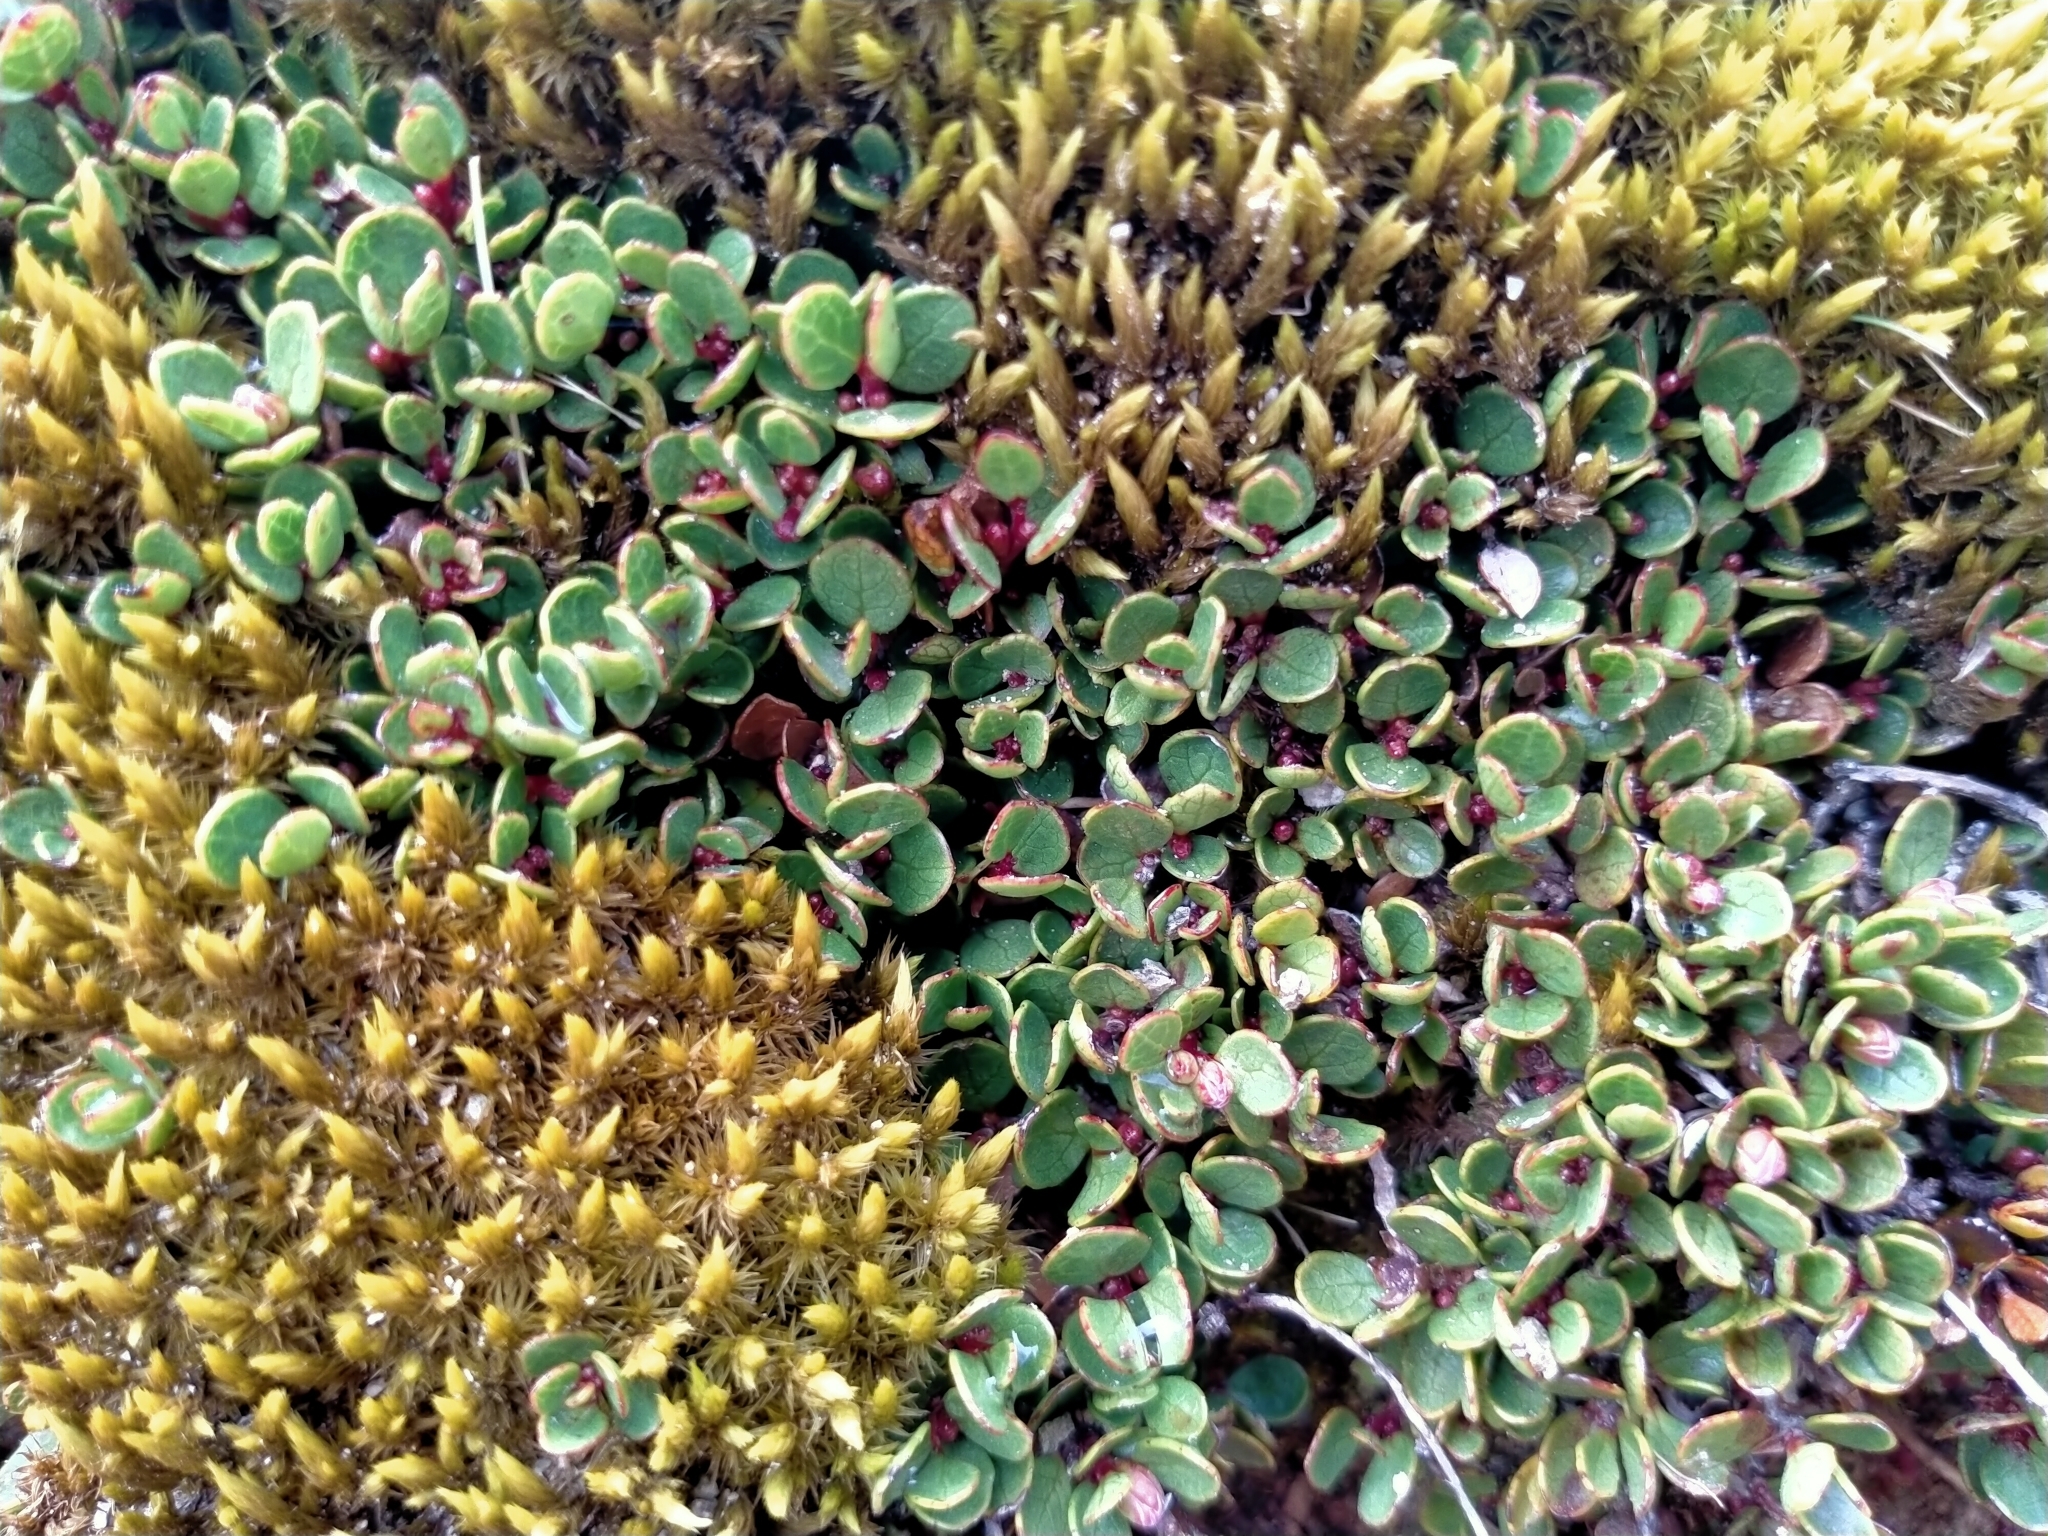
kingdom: Plantae
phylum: Tracheophyta
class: Magnoliopsida
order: Ericales
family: Ericaceae
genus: Gaultheria
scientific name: Gaultheria nubicola
